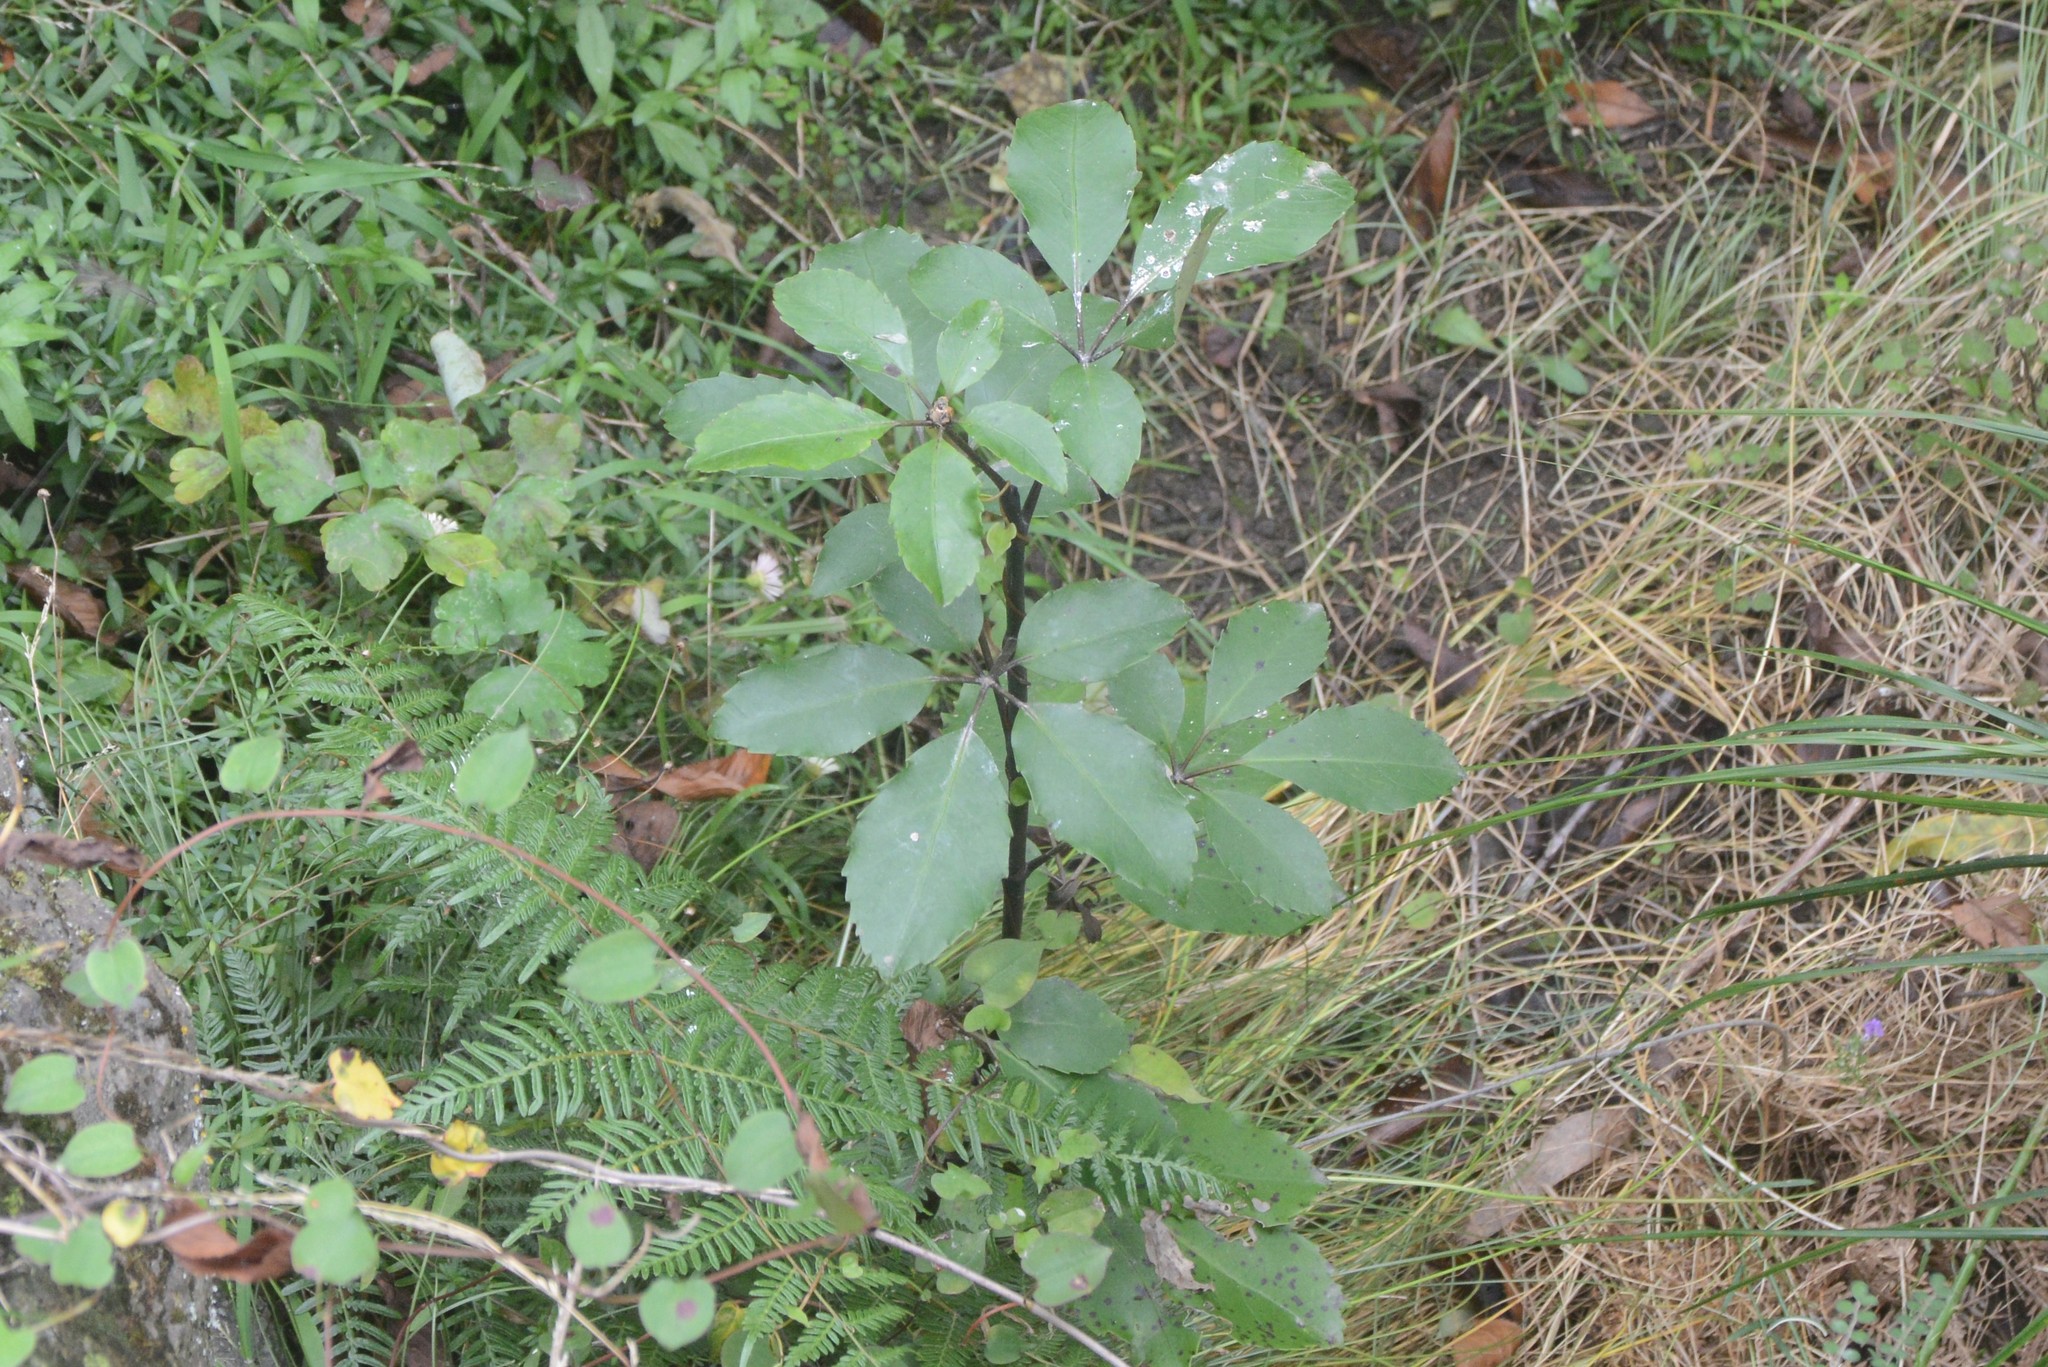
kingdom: Plantae
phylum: Tracheophyta
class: Magnoliopsida
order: Apiales
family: Araliaceae
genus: Neopanax
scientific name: Neopanax arboreus
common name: Five-fingers
